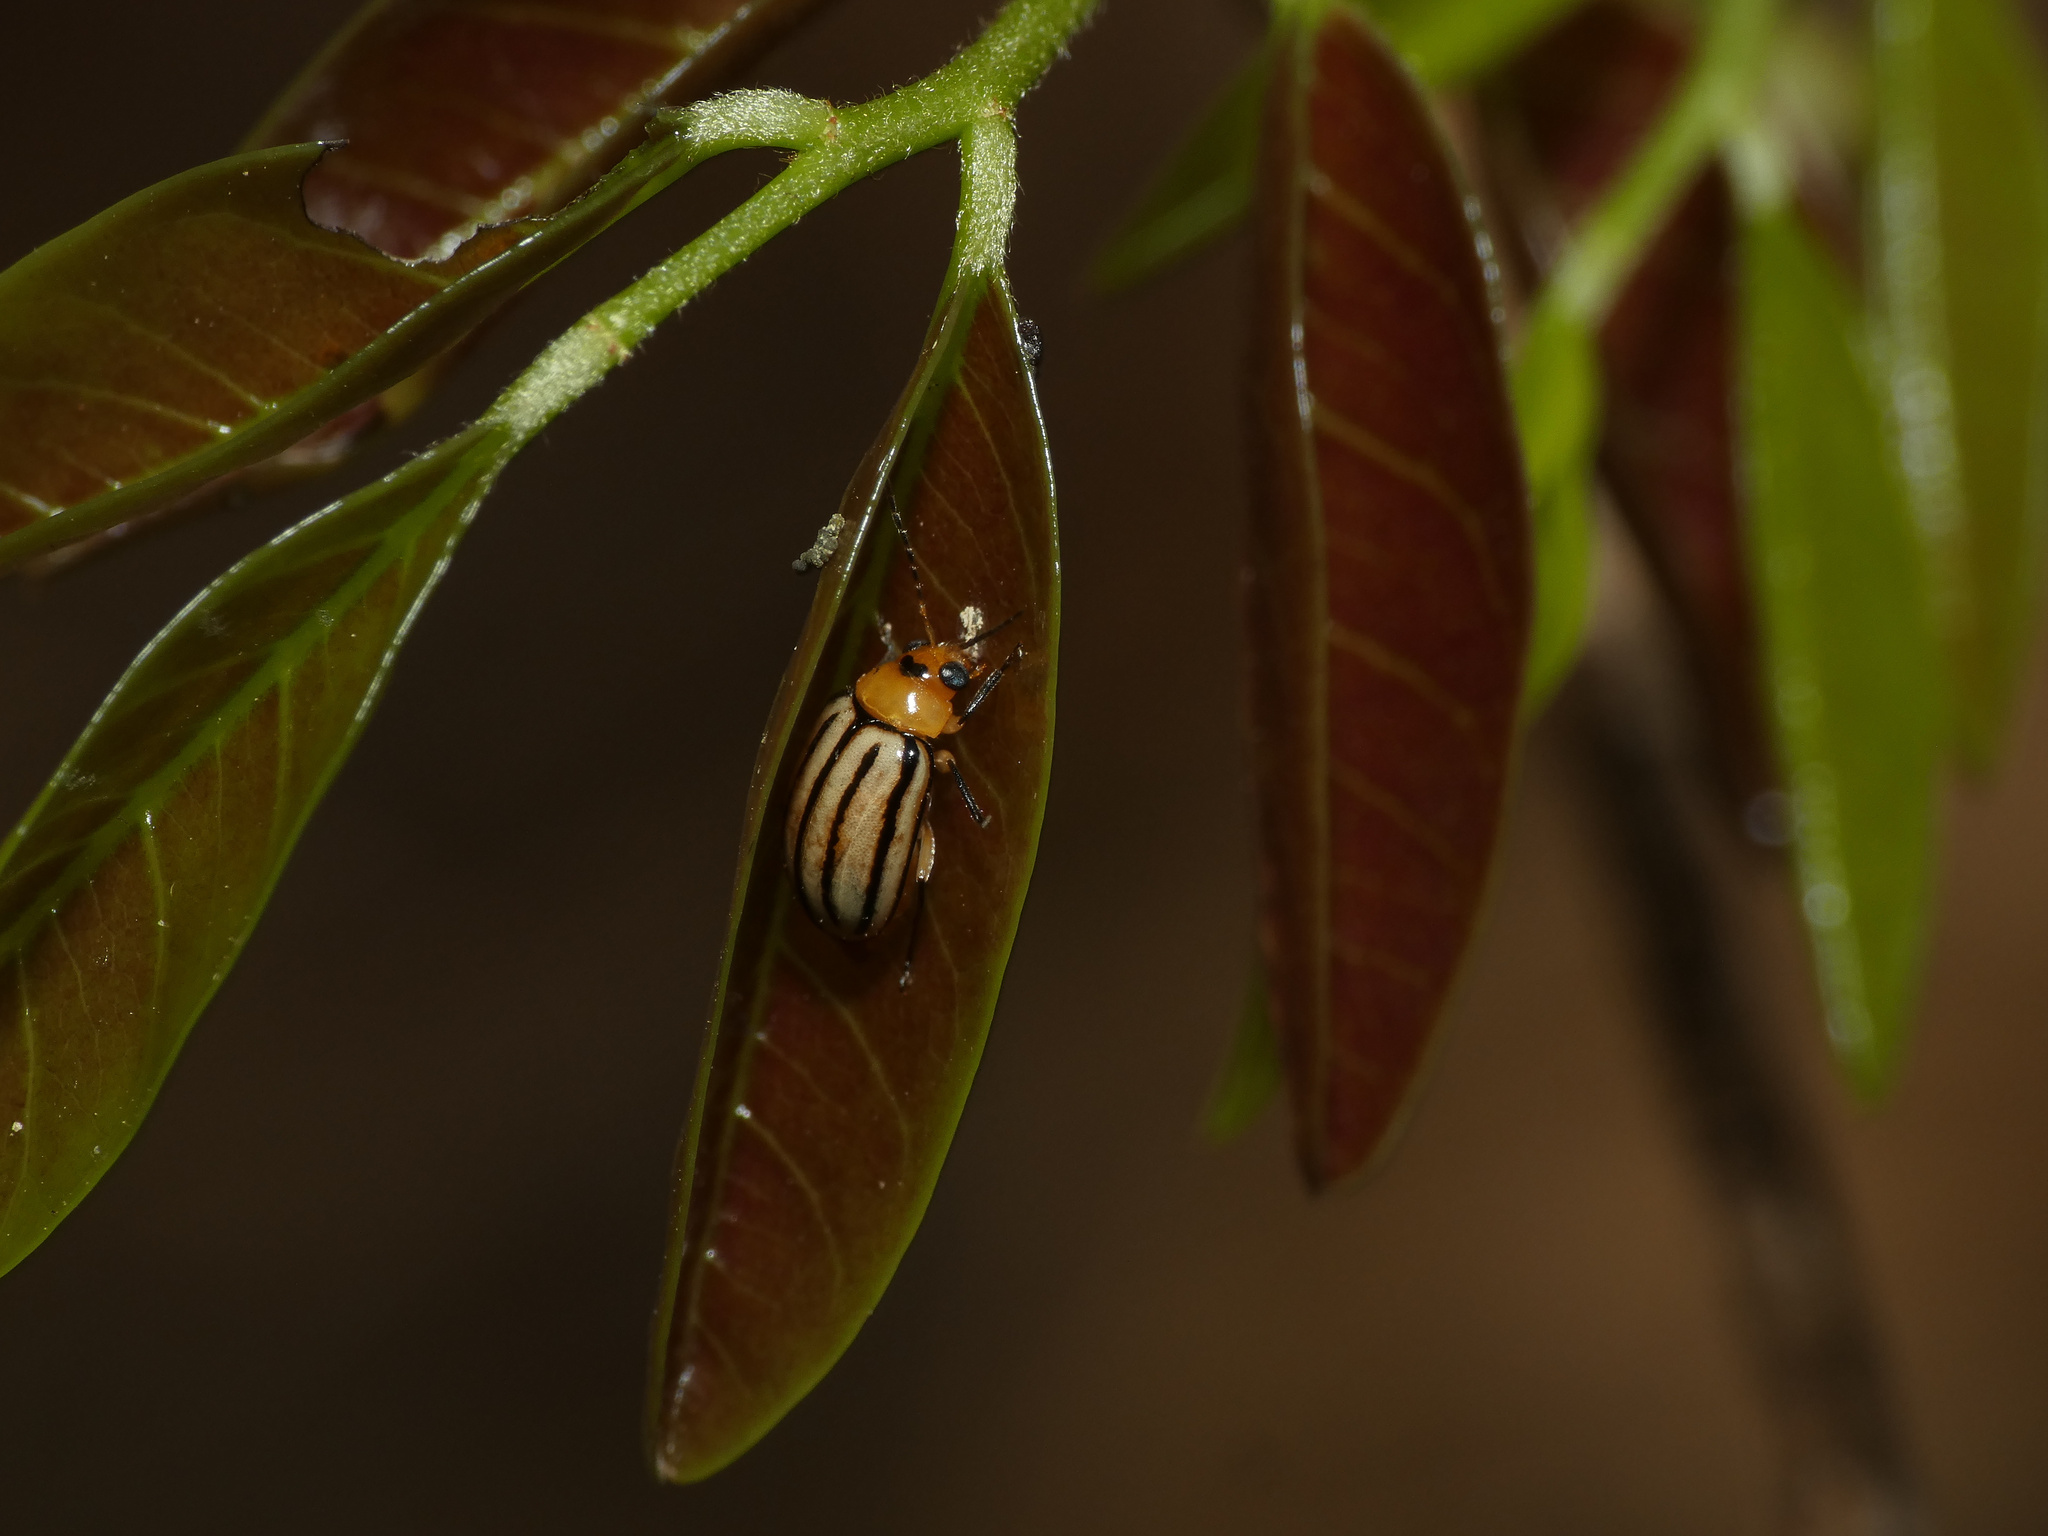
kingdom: Animalia
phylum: Arthropoda
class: Insecta
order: Coleoptera
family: Chrysomelidae
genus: Neobarombiella
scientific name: Neobarombiella
